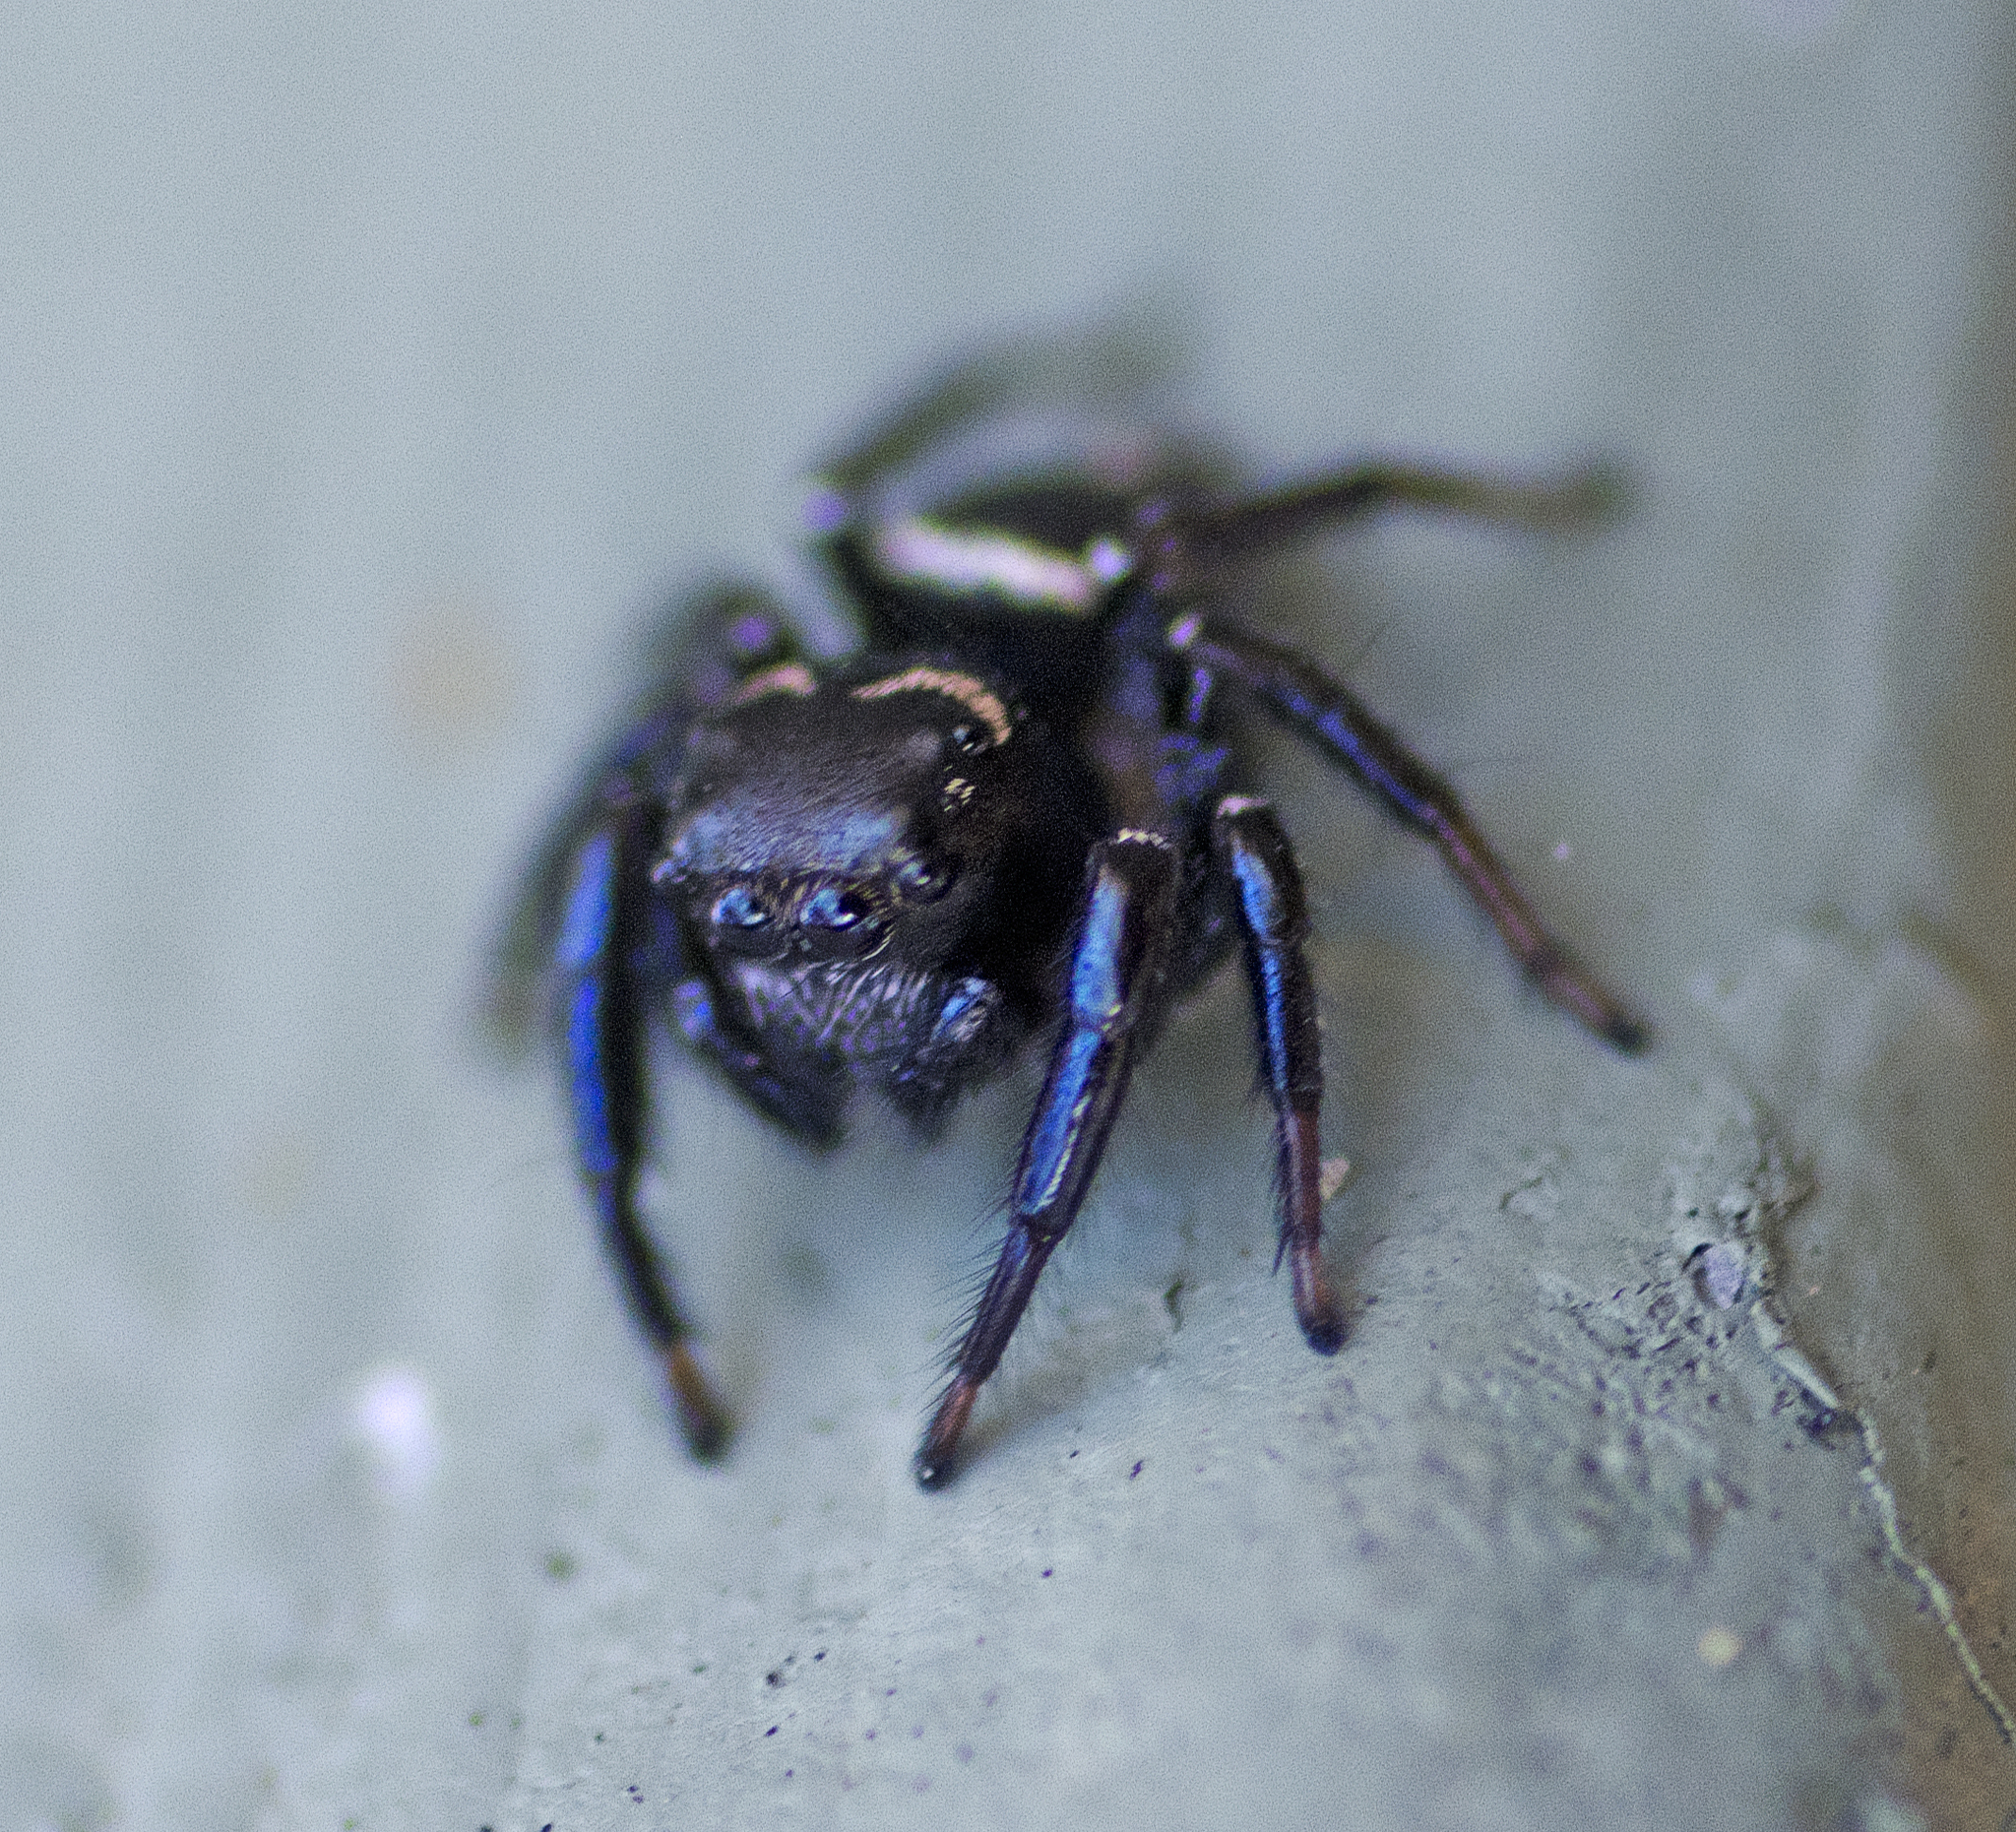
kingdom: Animalia
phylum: Arthropoda
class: Arachnida
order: Araneae
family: Salticidae
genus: Zenodorus
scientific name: Zenodorus orbiculatus
